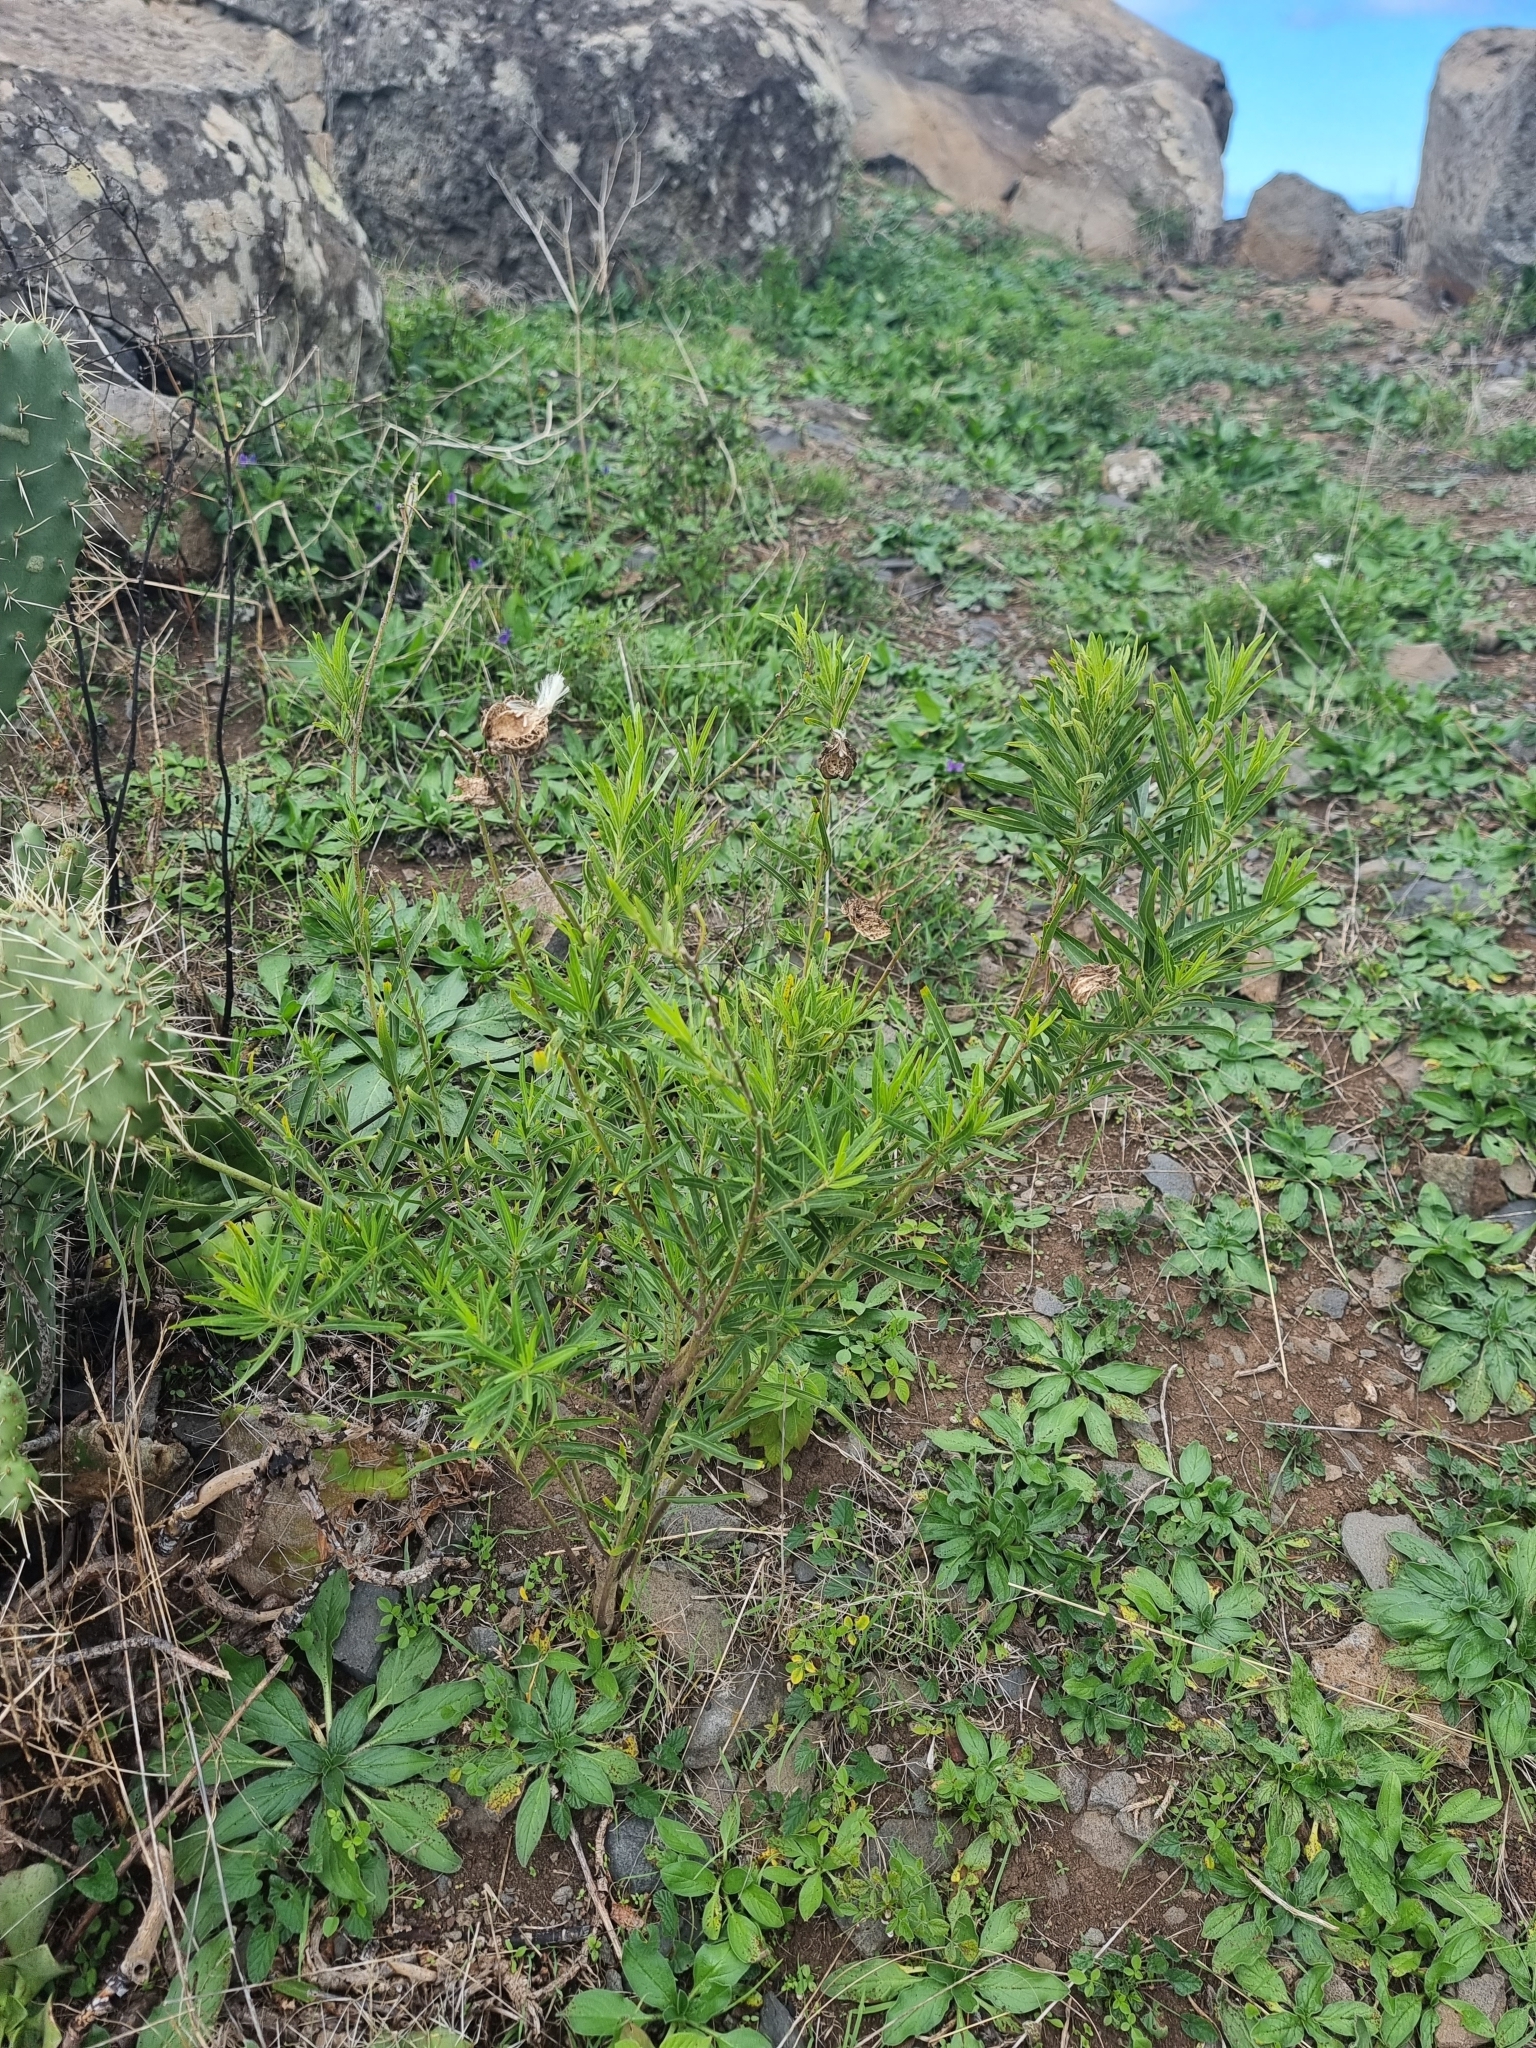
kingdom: Plantae
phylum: Tracheophyta
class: Magnoliopsida
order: Gentianales
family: Apocynaceae
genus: Gomphocarpus
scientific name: Gomphocarpus physocarpus
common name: Balloon cotton bush
